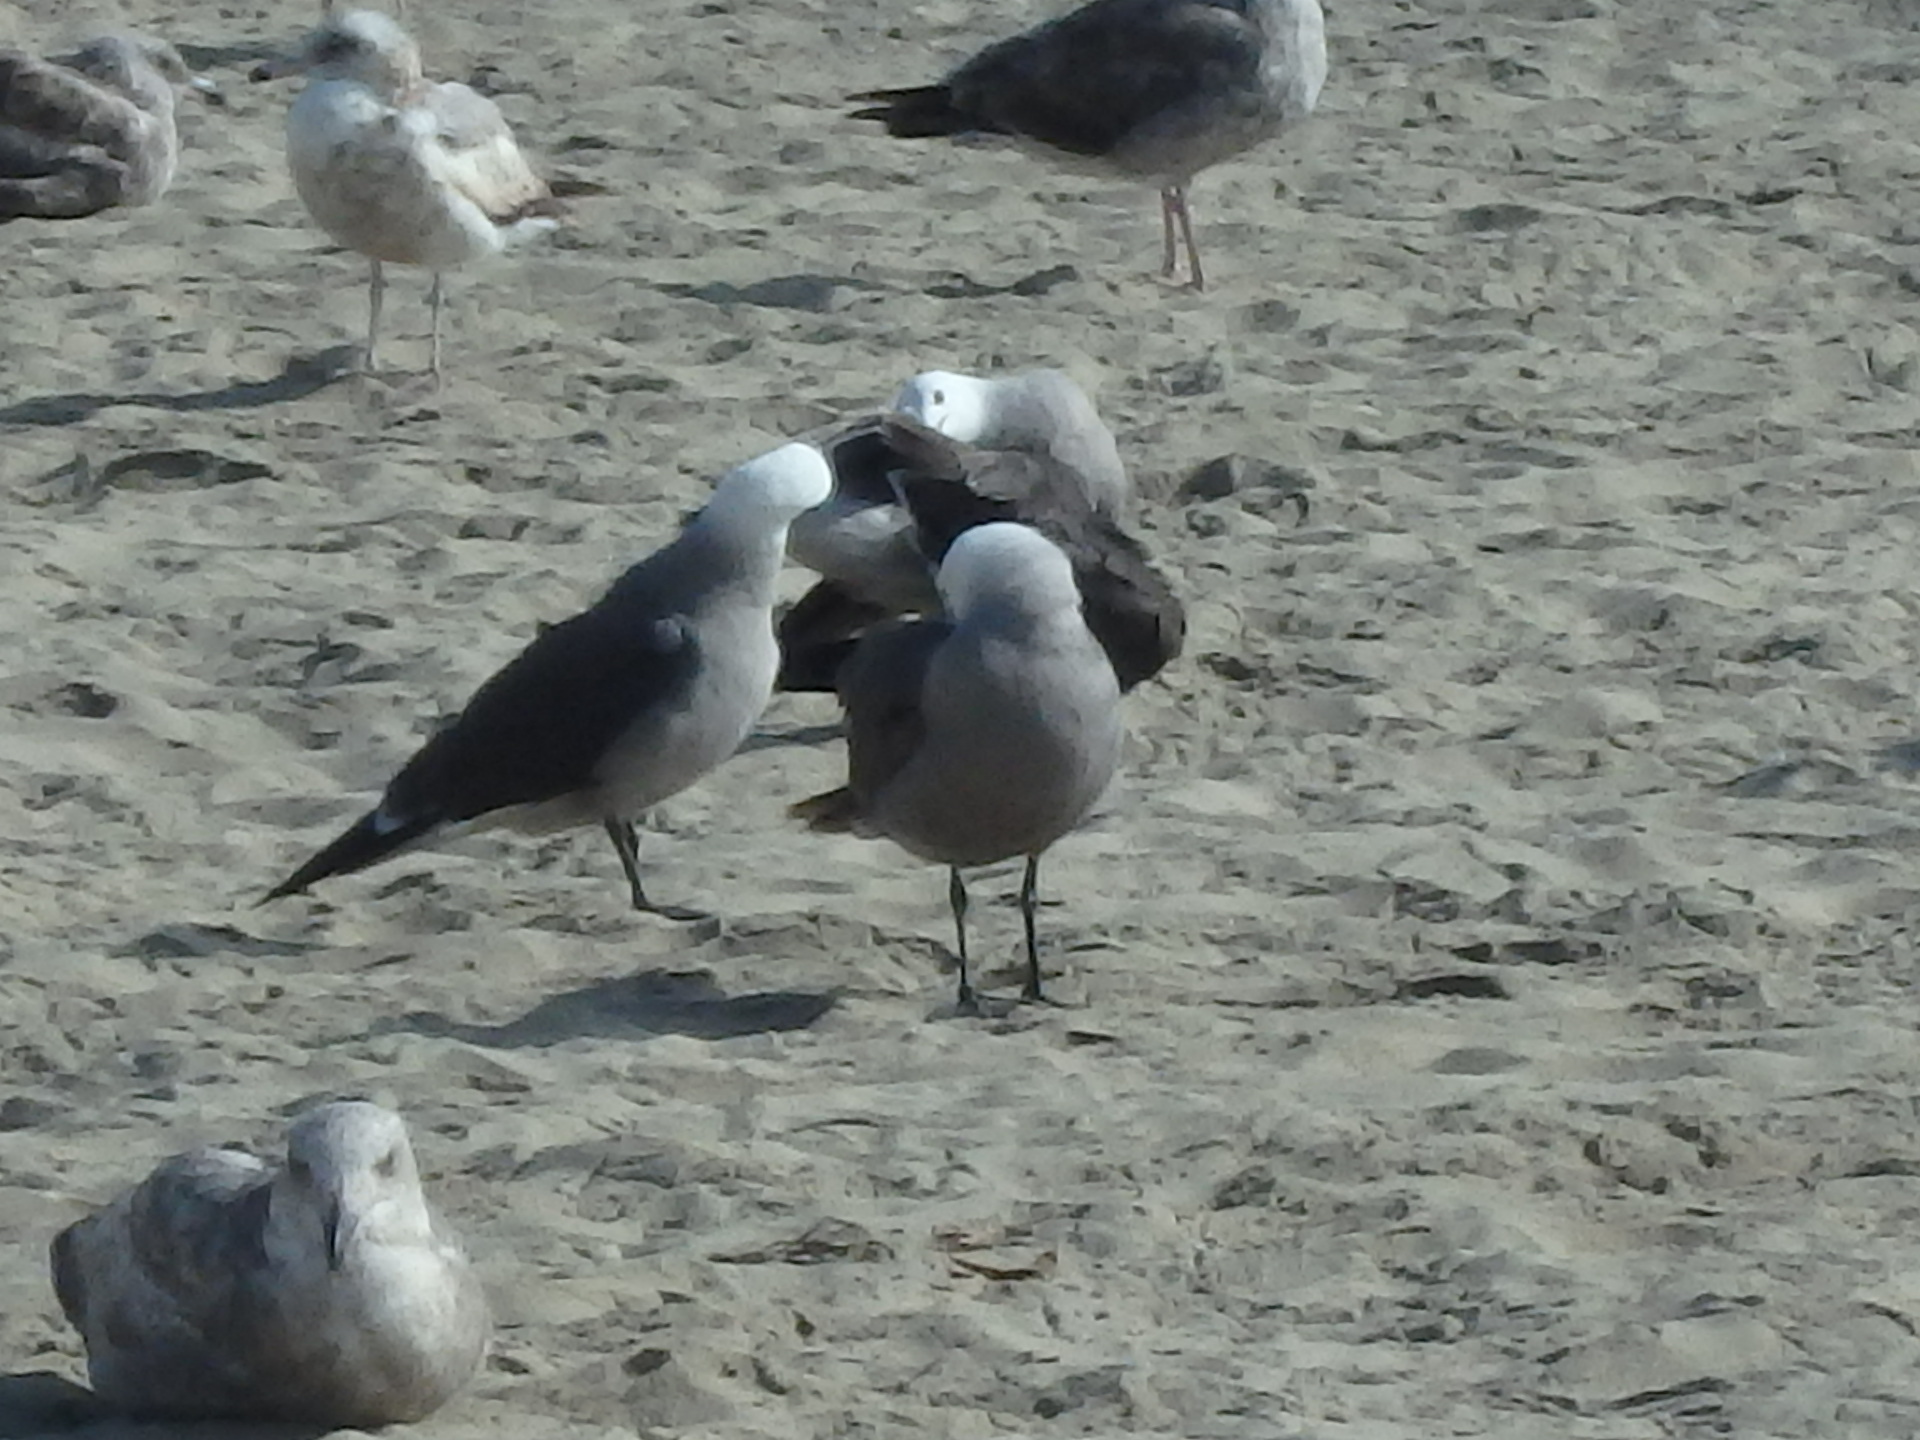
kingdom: Animalia
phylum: Chordata
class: Aves
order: Charadriiformes
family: Laridae
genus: Larus
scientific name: Larus heermanni
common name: Heermann's gull
